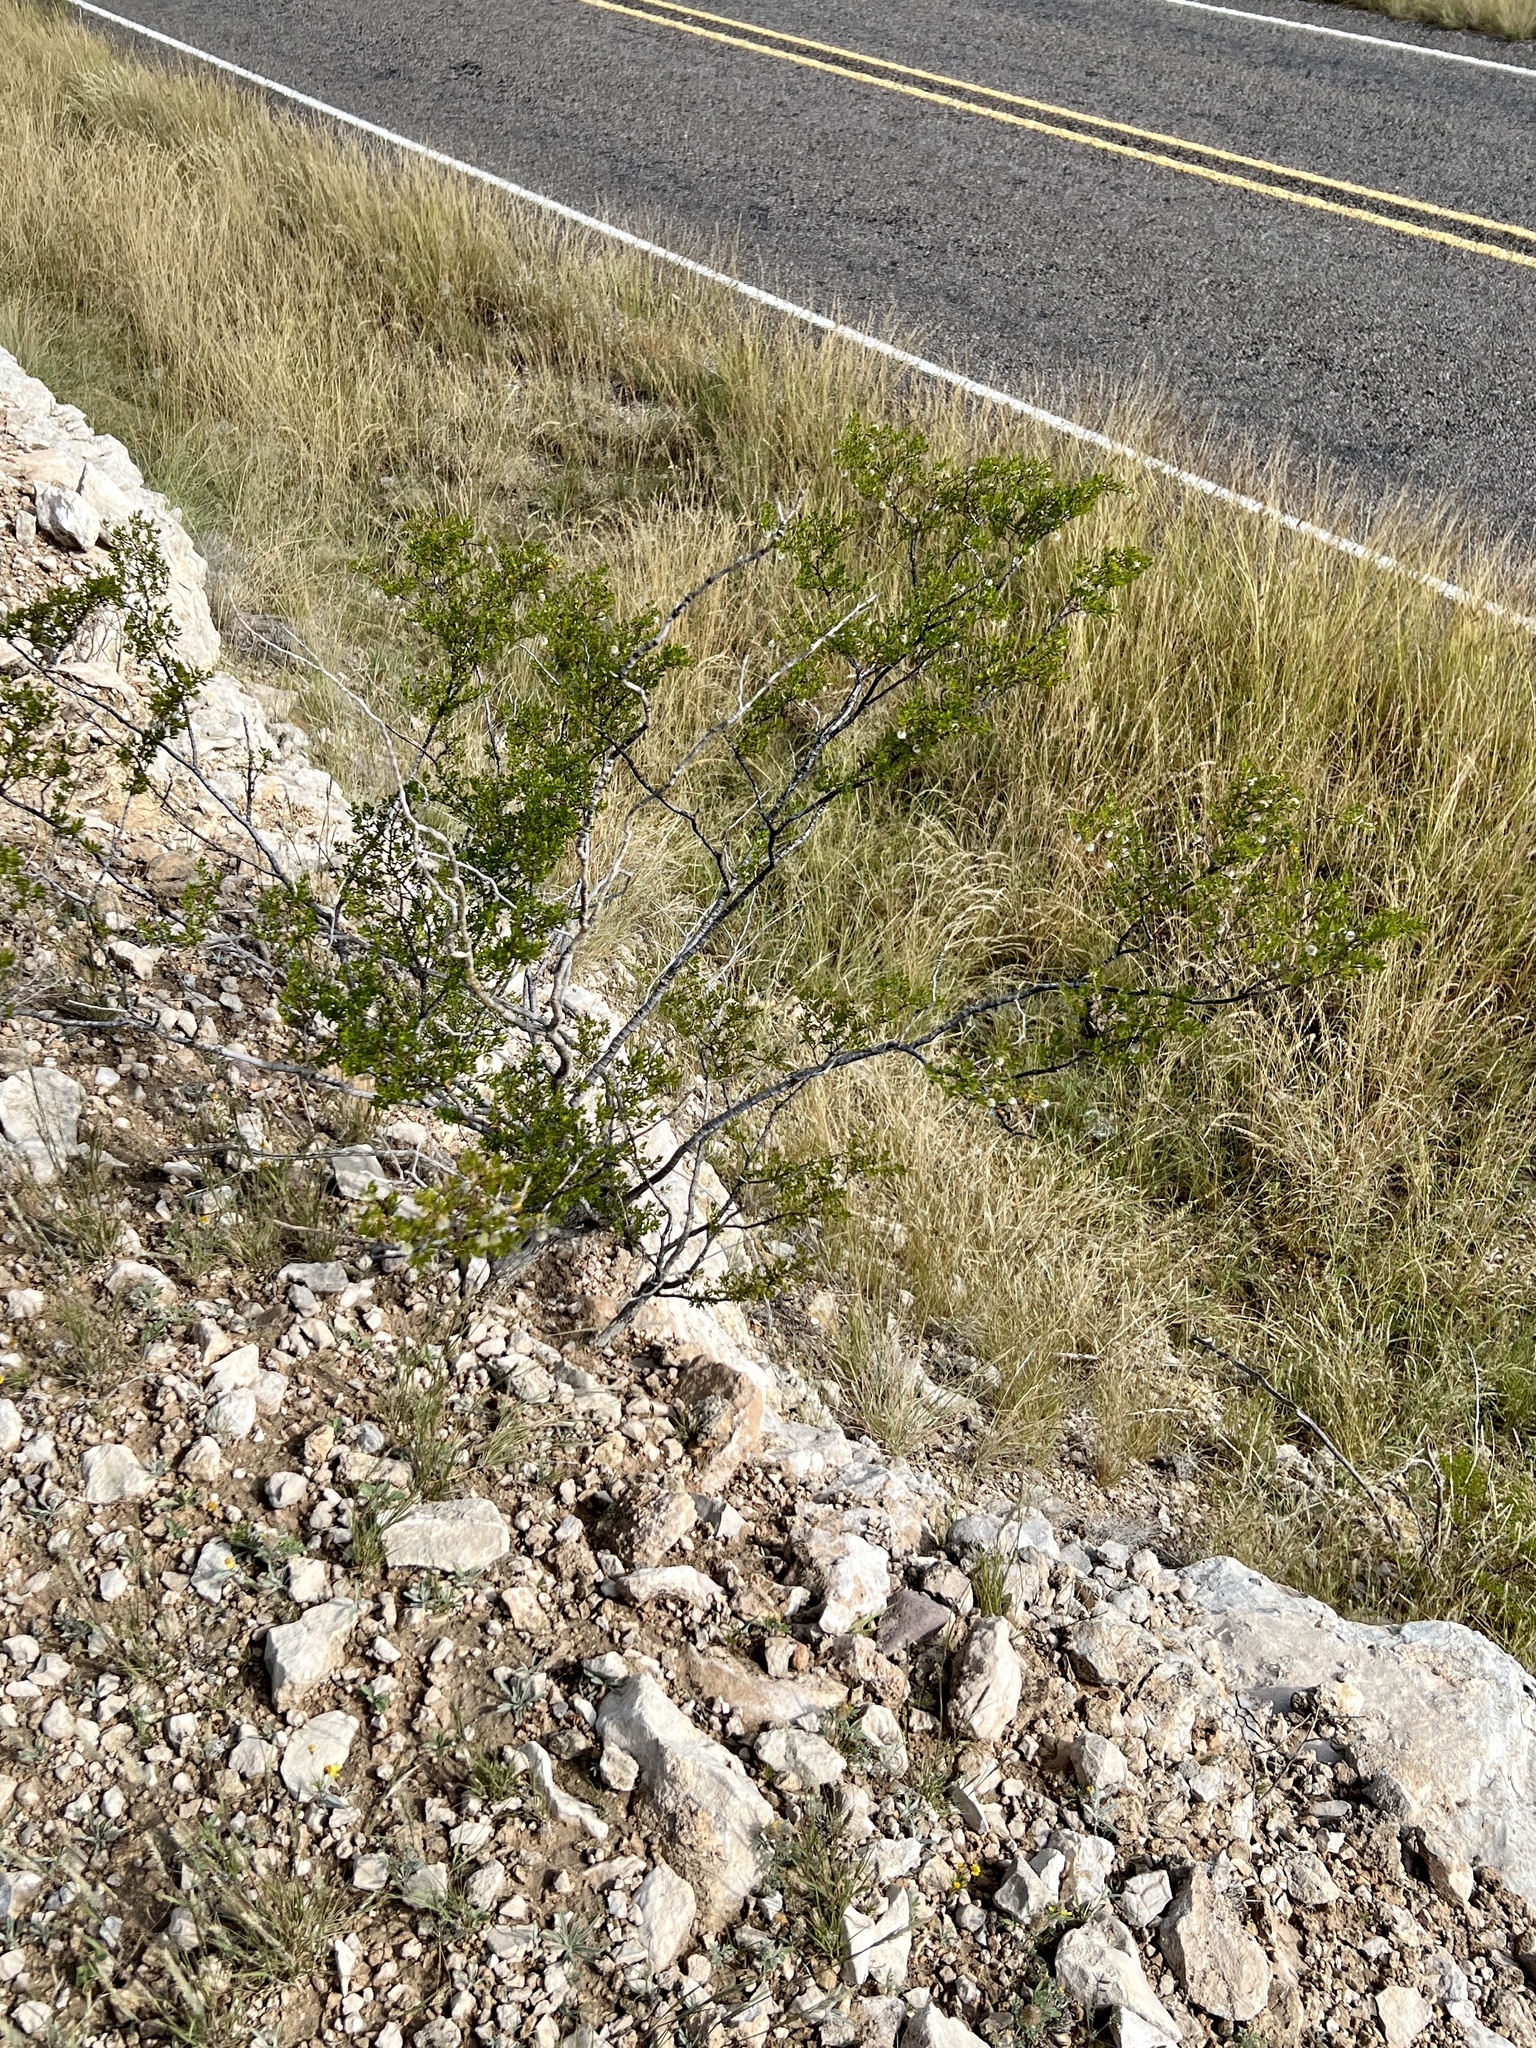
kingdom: Plantae
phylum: Tracheophyta
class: Magnoliopsida
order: Zygophyllales
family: Zygophyllaceae
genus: Larrea
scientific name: Larrea tridentata
